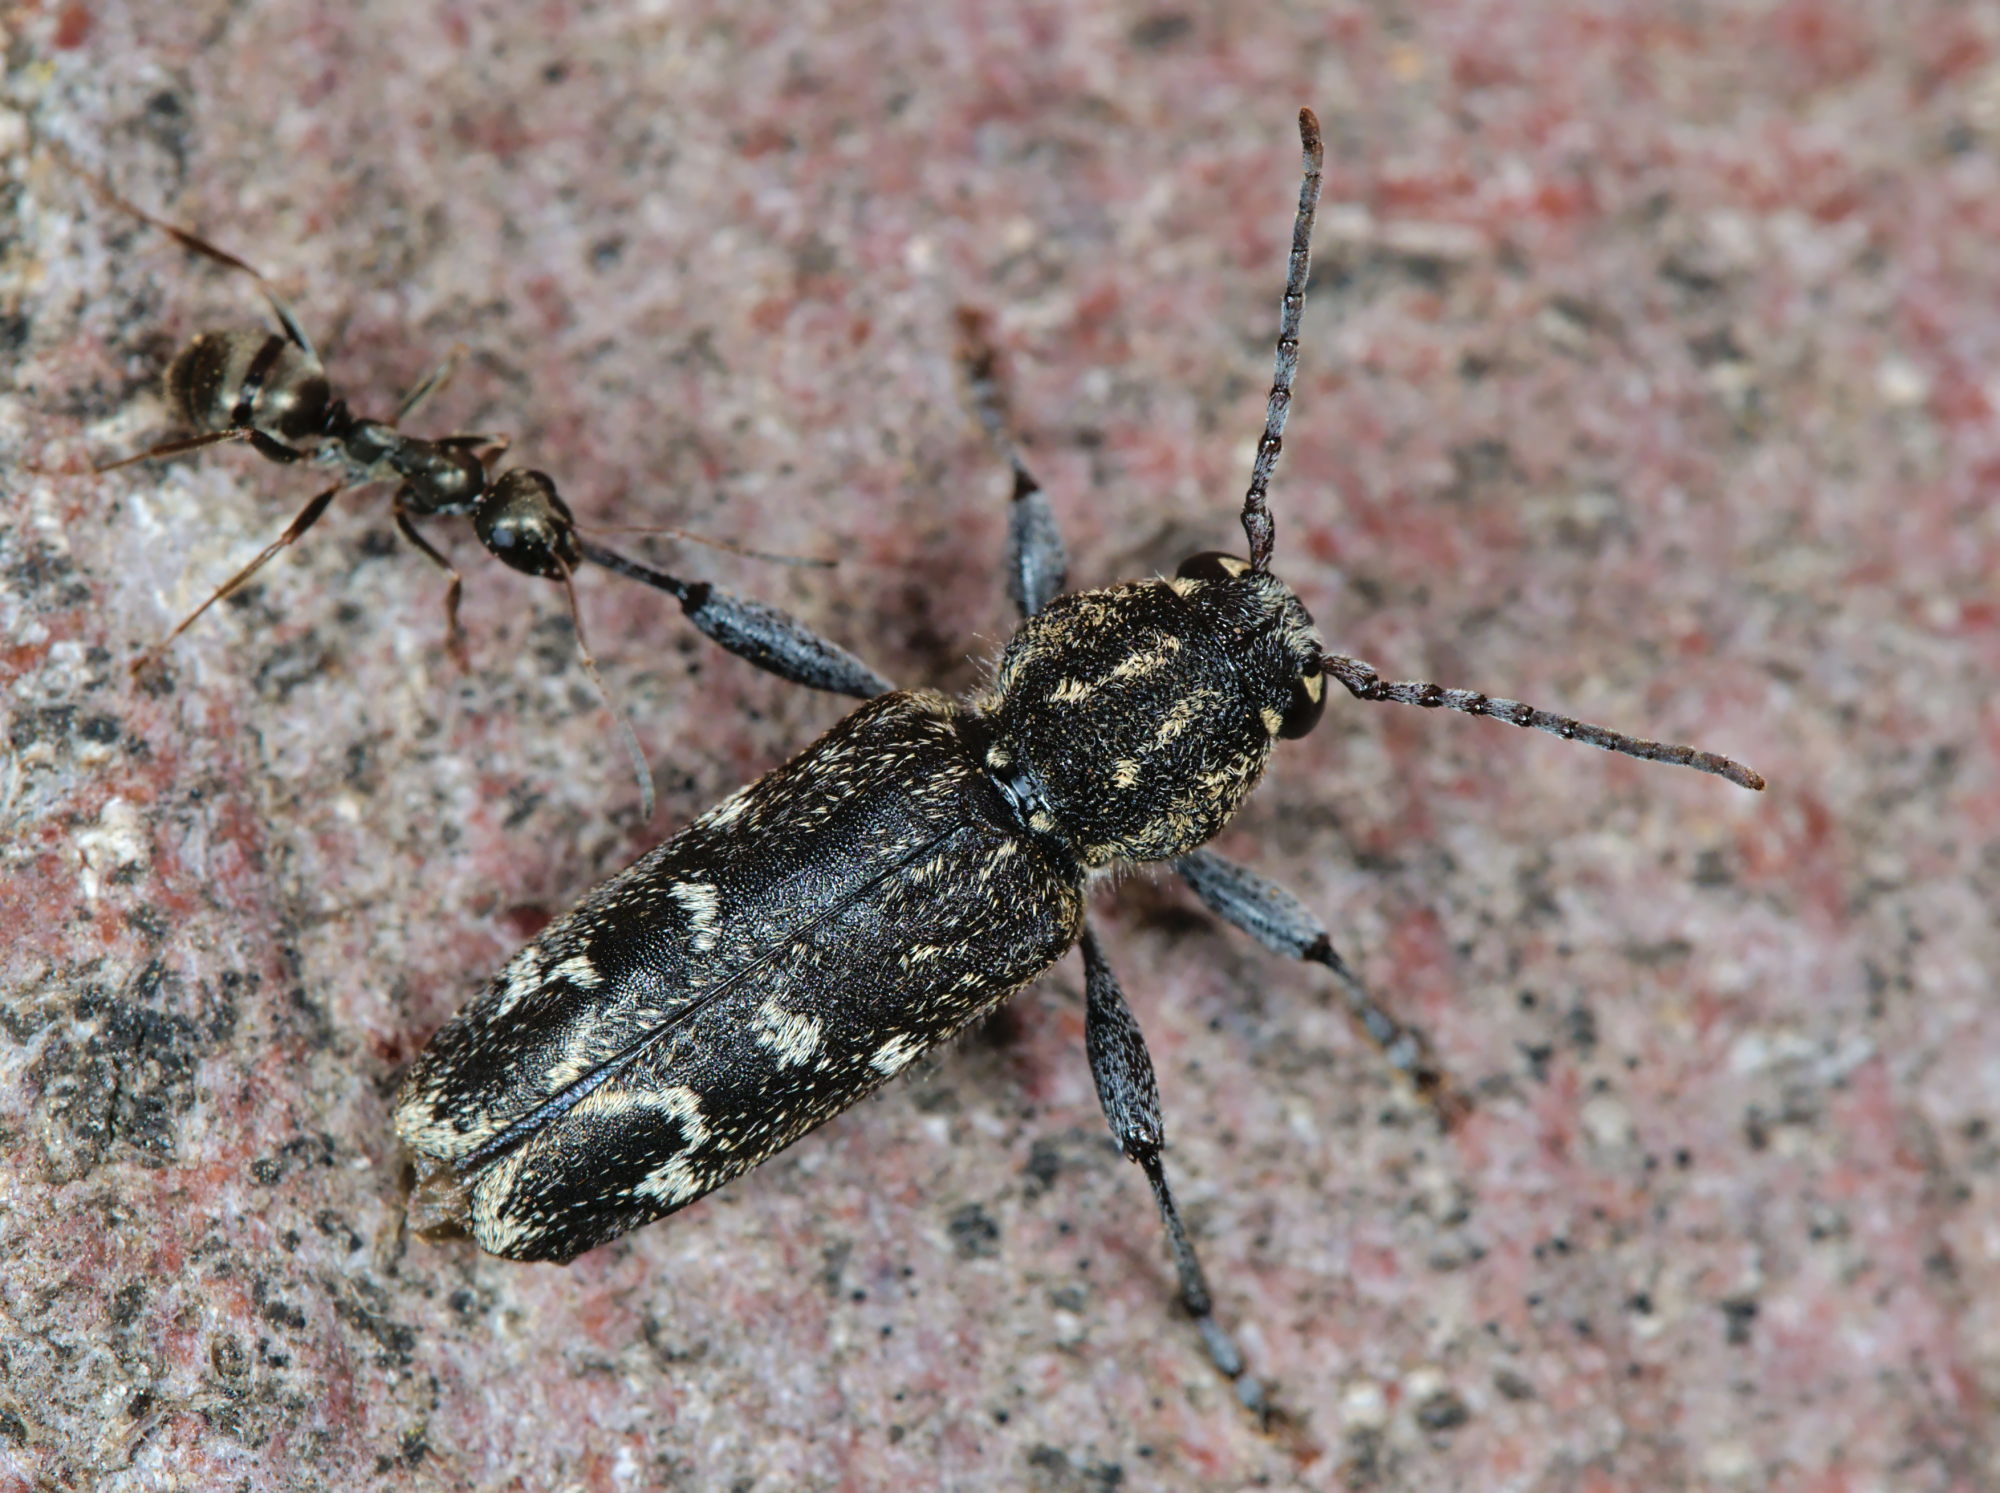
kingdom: Animalia
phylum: Arthropoda
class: Insecta
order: Coleoptera
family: Cerambycidae
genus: Xylotrechus
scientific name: Xylotrechus rusticus
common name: Grey tiger long-horned beetle
